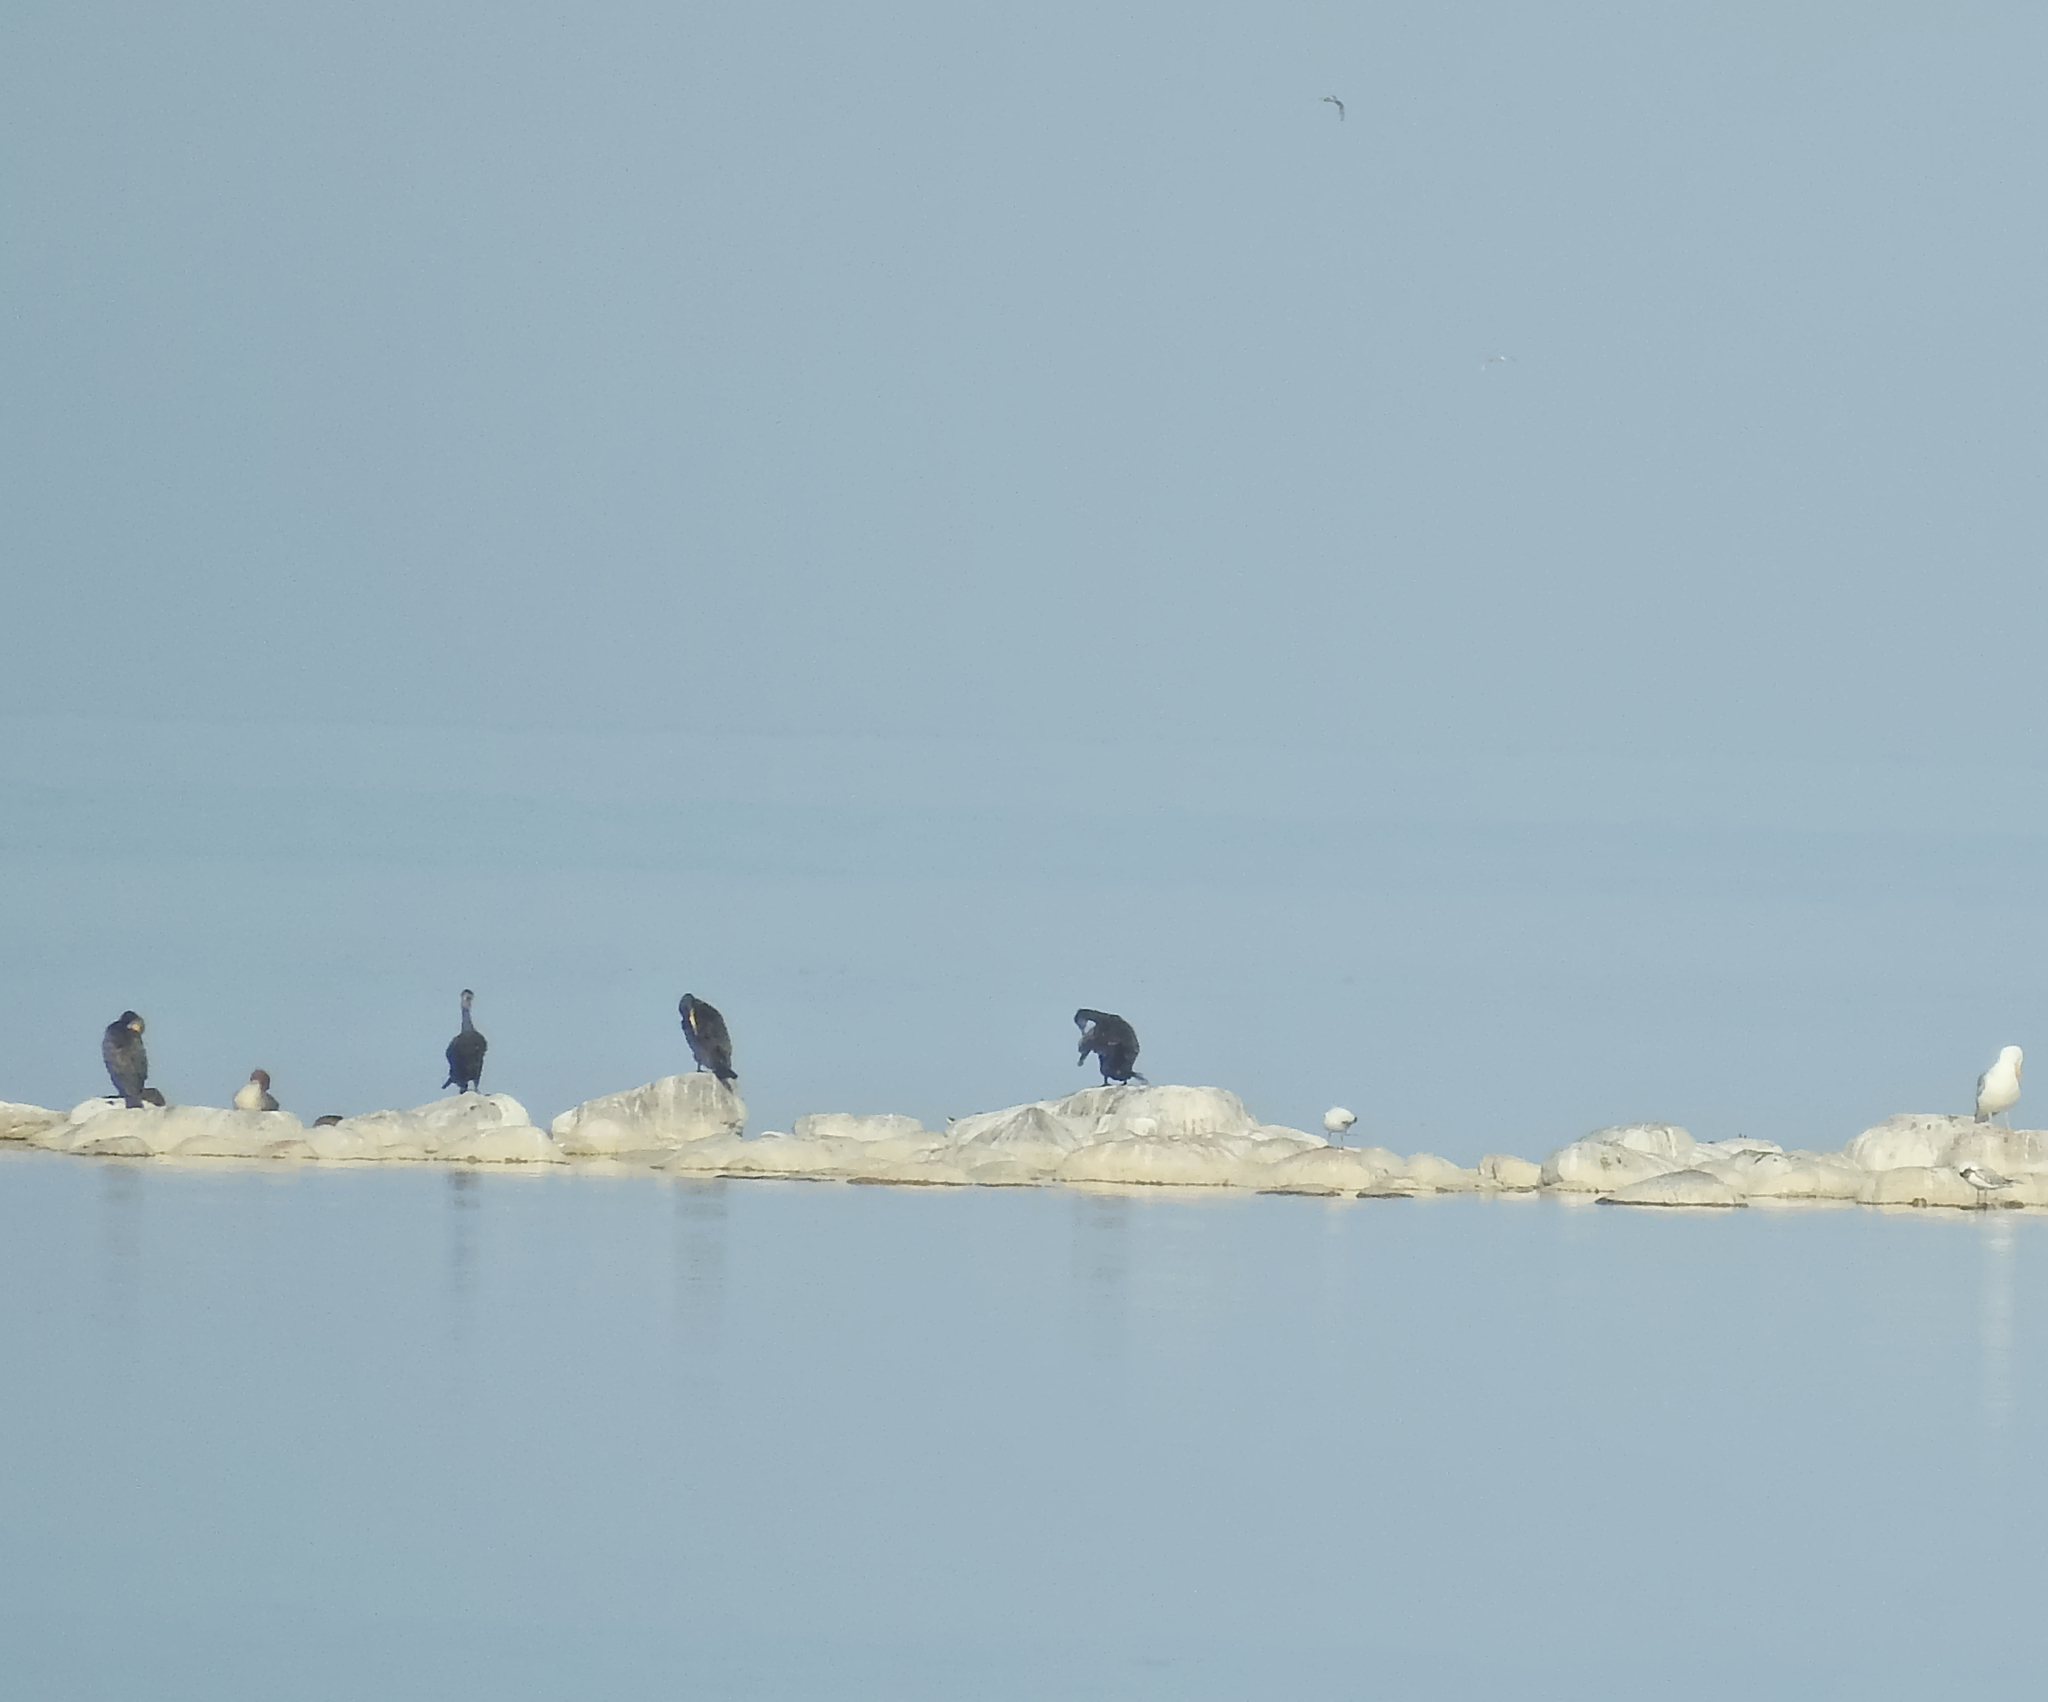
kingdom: Animalia
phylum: Chordata
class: Aves
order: Suliformes
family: Phalacrocoracidae
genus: Phalacrocorax
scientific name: Phalacrocorax carbo
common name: Great cormorant
